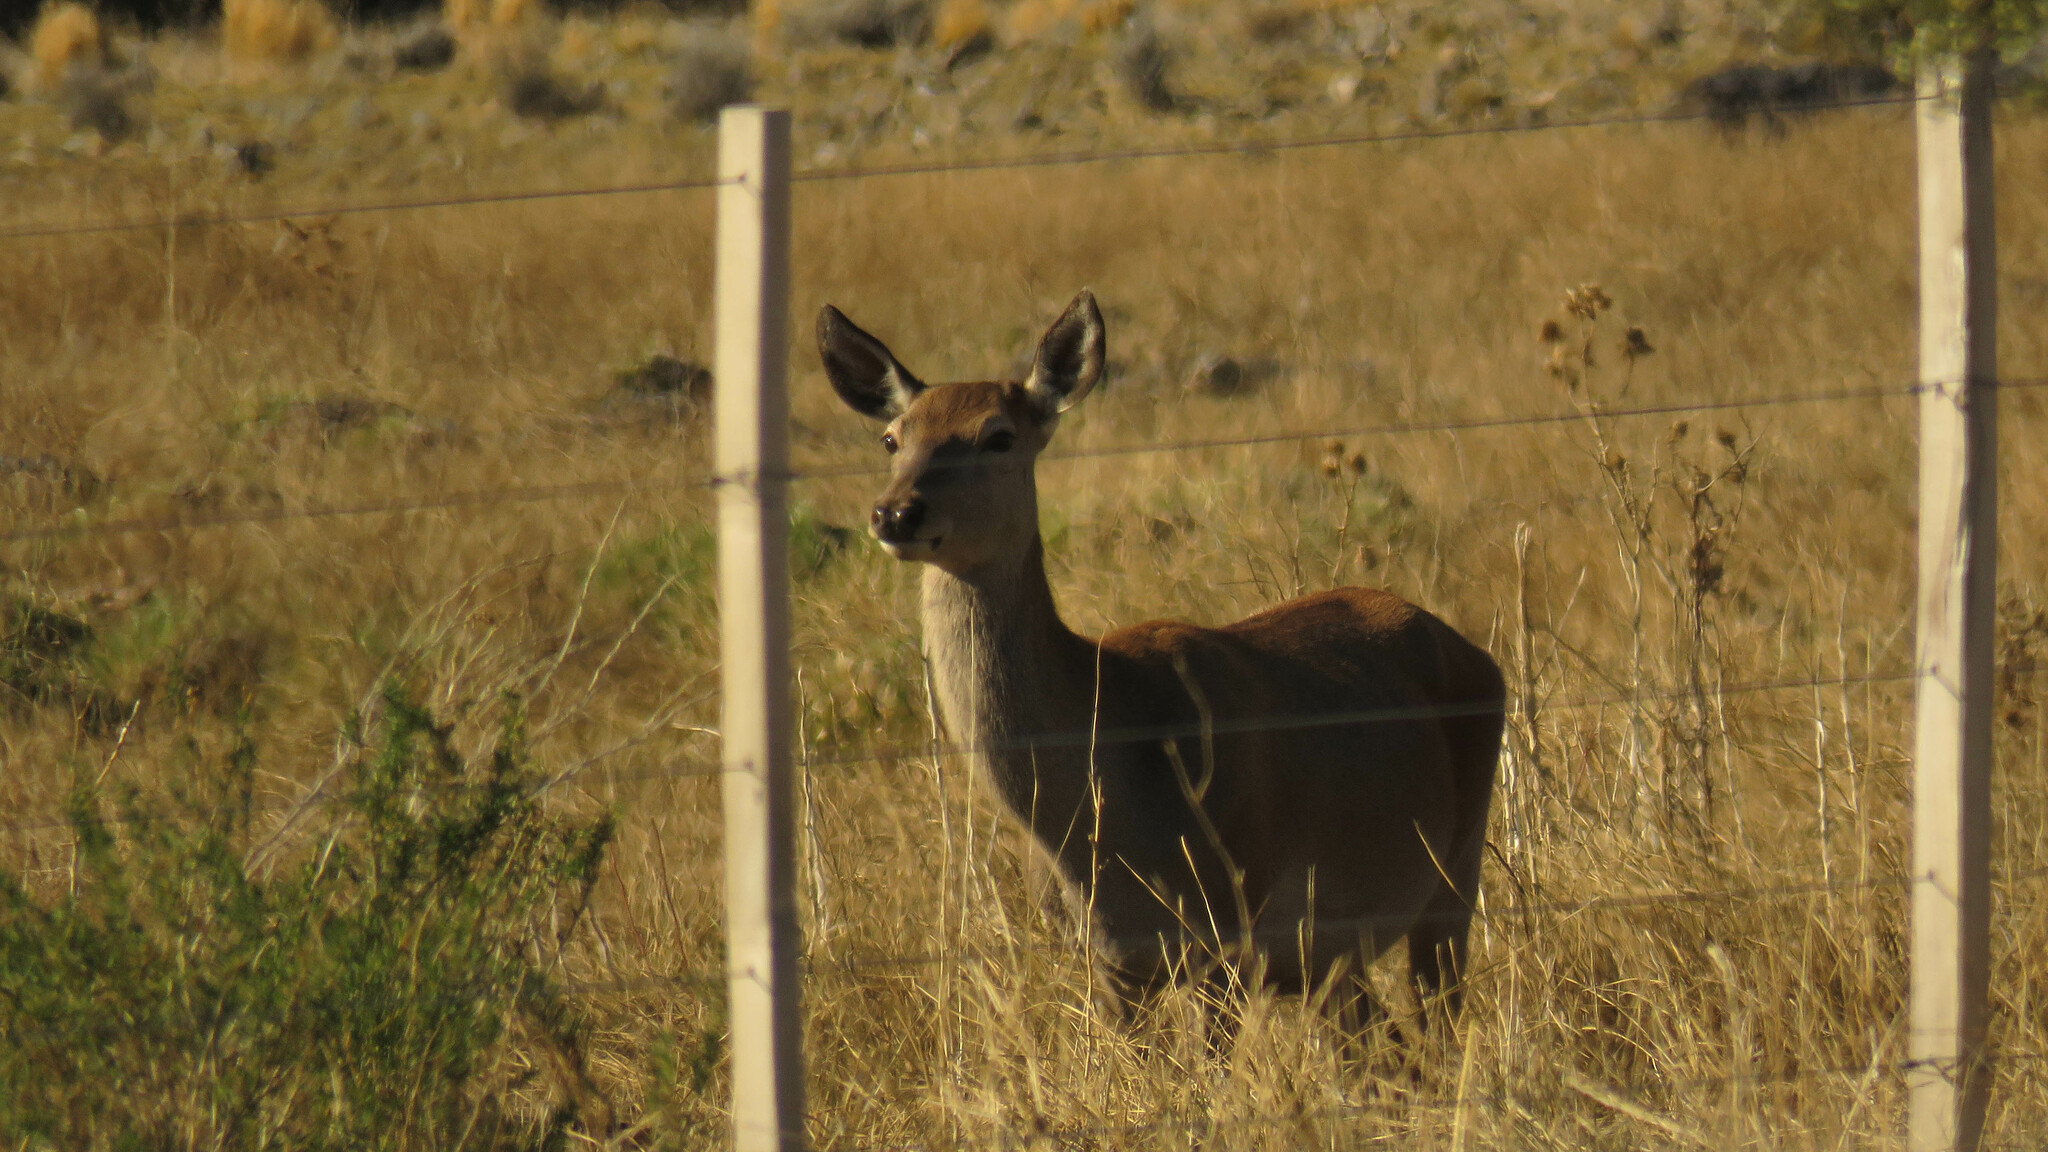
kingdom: Animalia
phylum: Chordata
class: Mammalia
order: Artiodactyla
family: Cervidae
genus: Cervus
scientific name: Cervus elaphus
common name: Red deer
